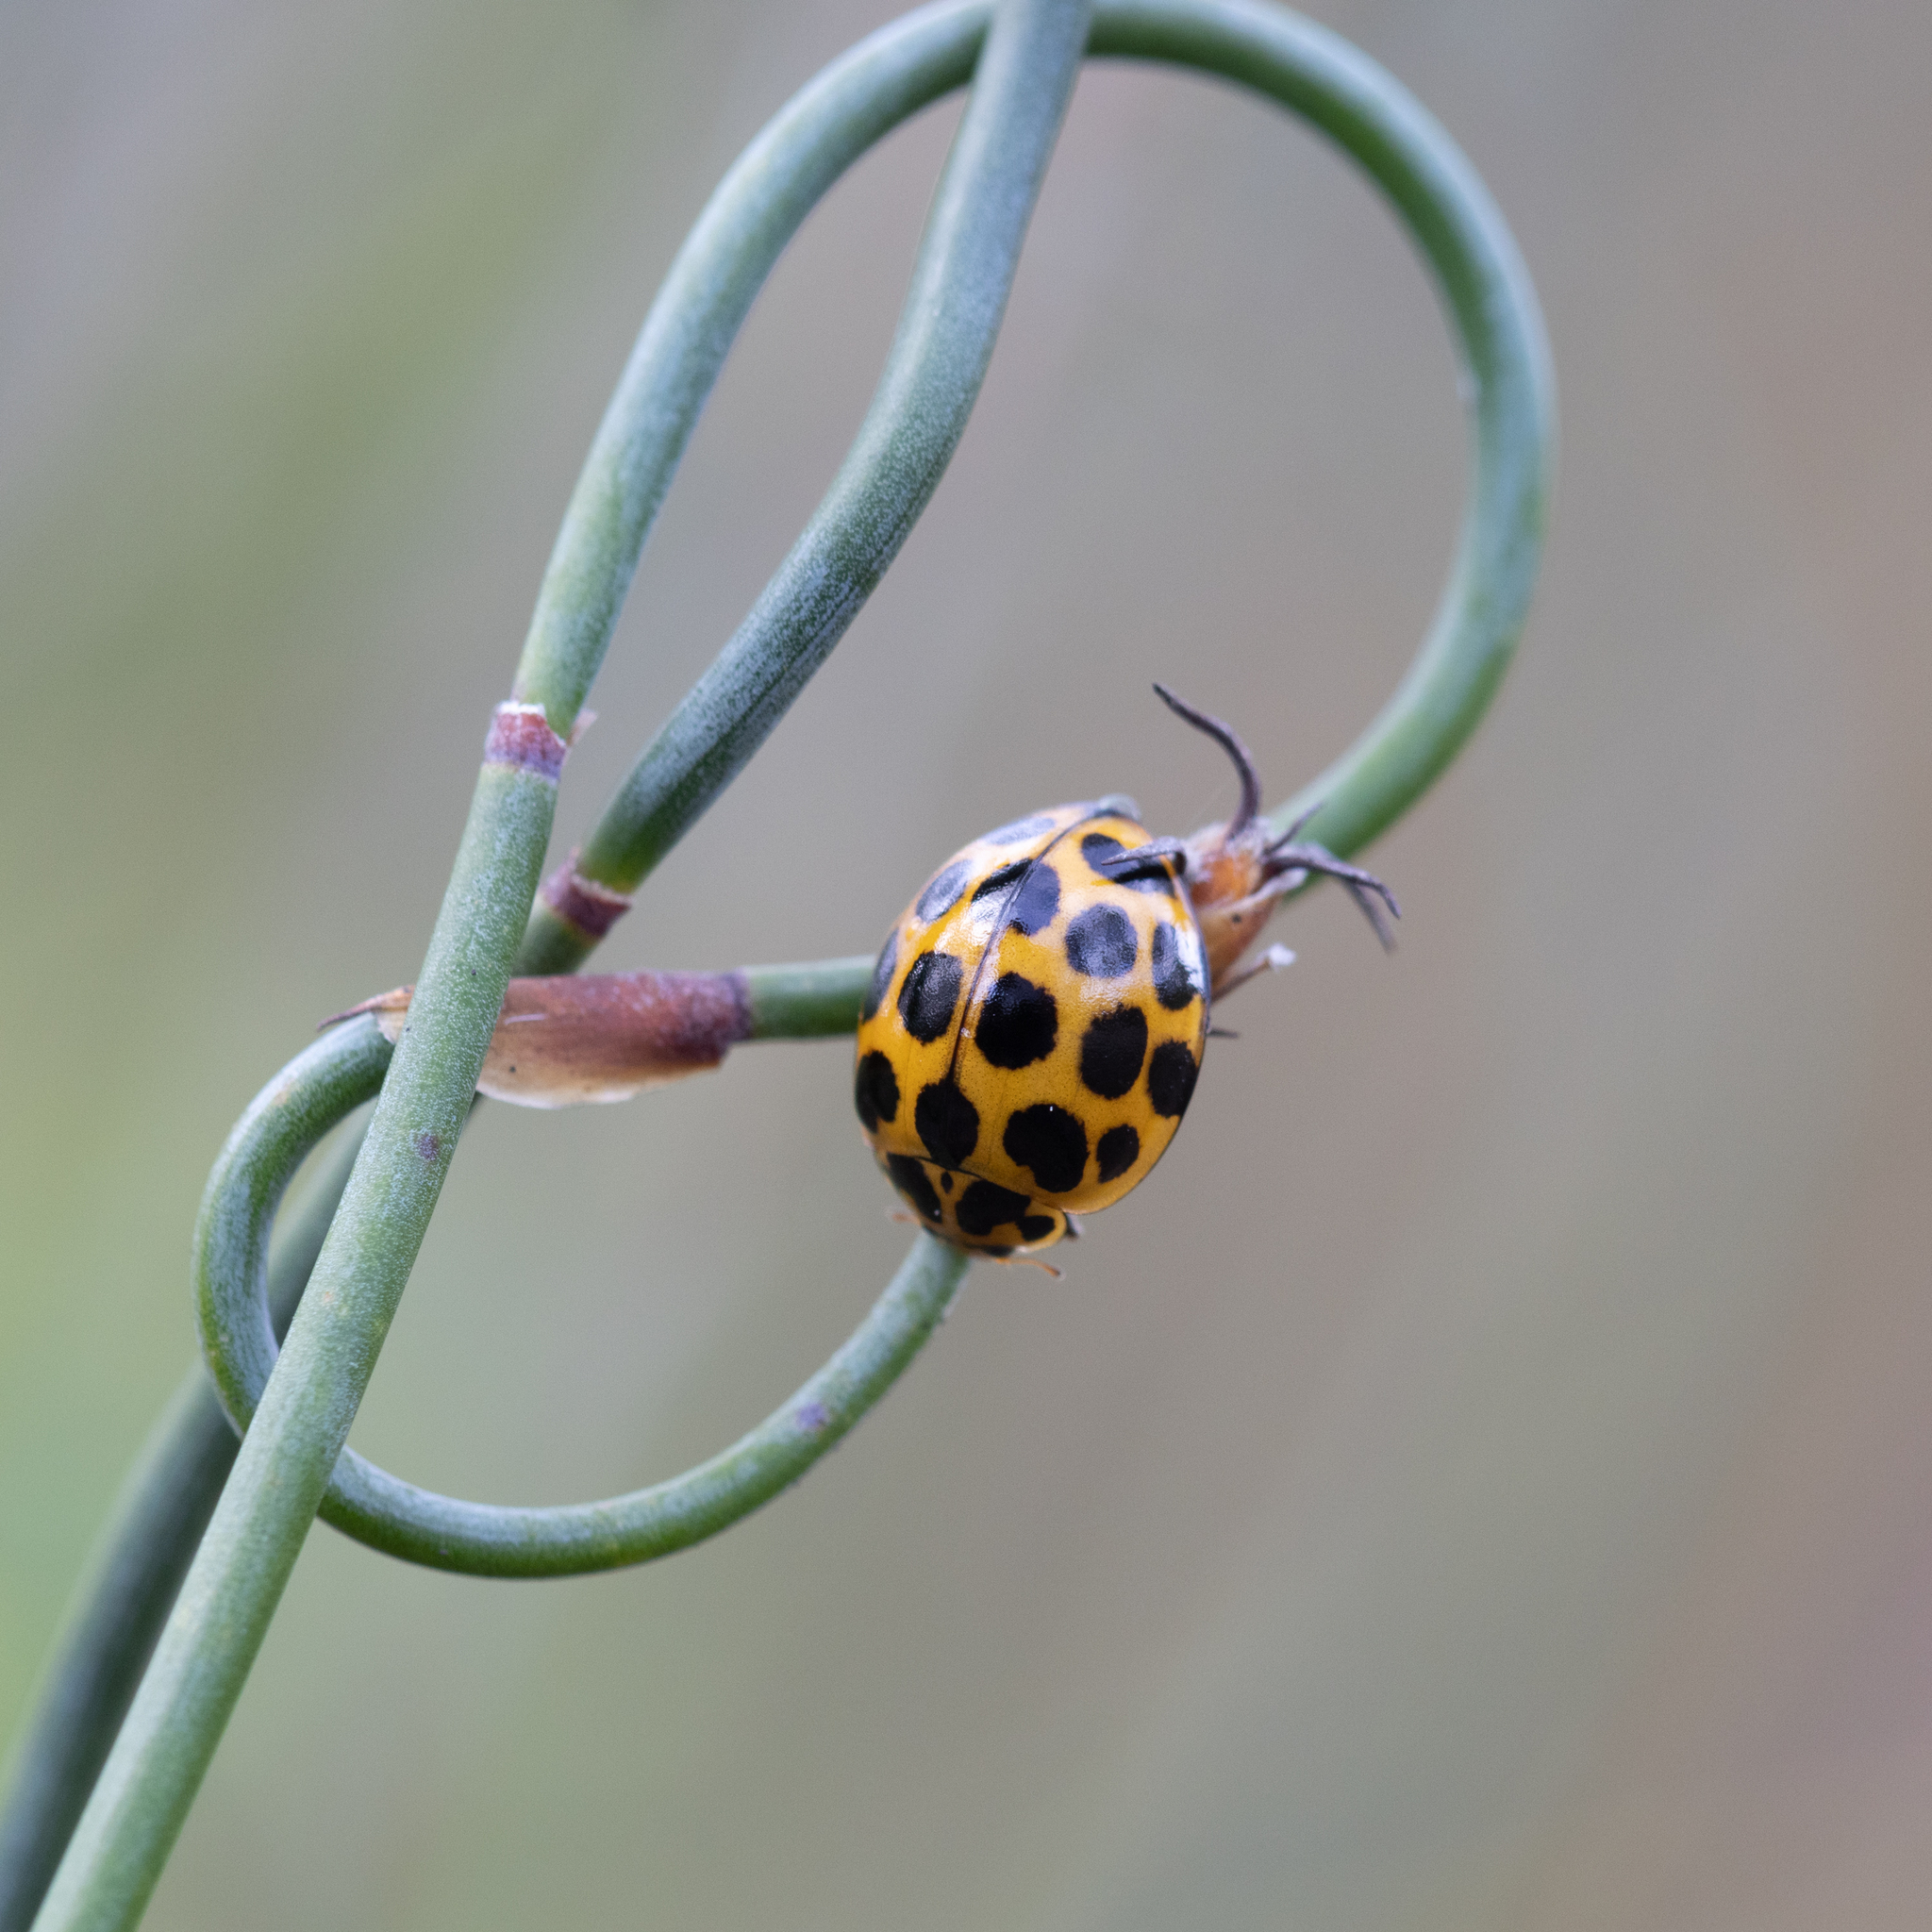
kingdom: Animalia
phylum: Arthropoda
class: Insecta
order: Coleoptera
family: Coccinellidae
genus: Harmonia
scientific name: Harmonia conformis
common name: Common spotted ladybird beetle
